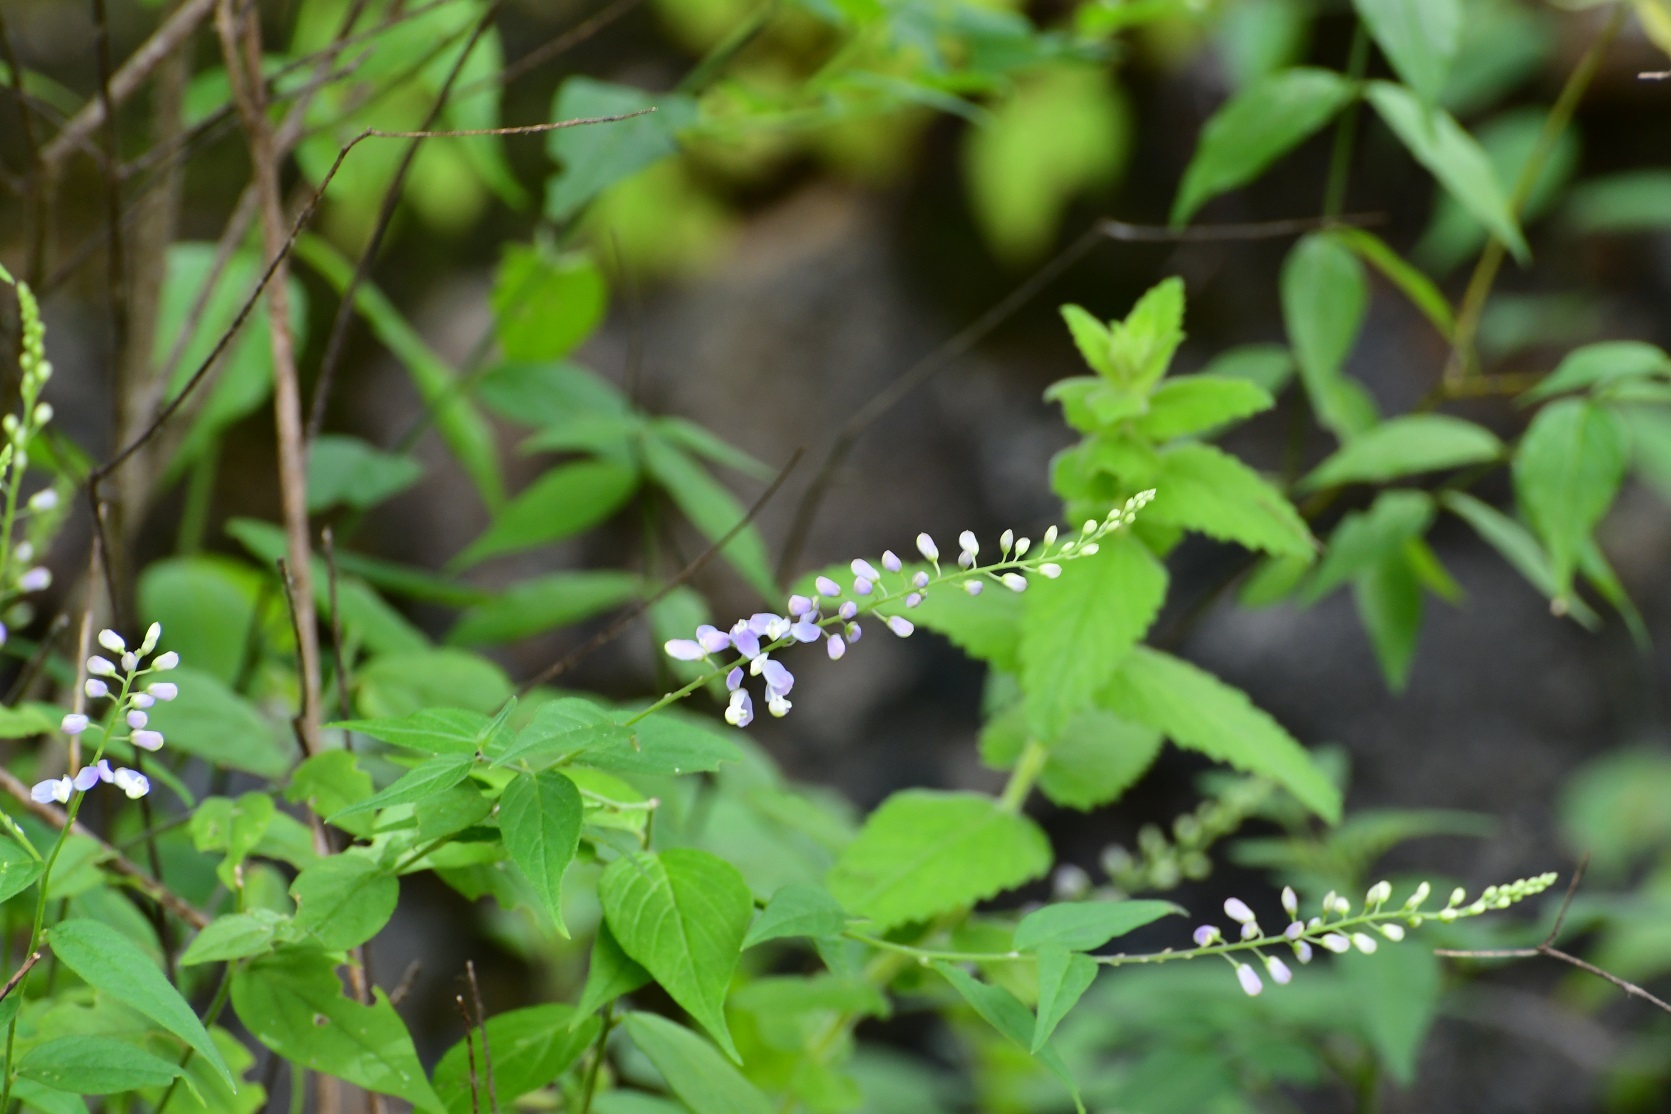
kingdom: Plantae
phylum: Tracheophyta
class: Magnoliopsida
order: Fabales
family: Polygalaceae
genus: Hebecarpa
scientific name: Hebecarpa costaricensis
